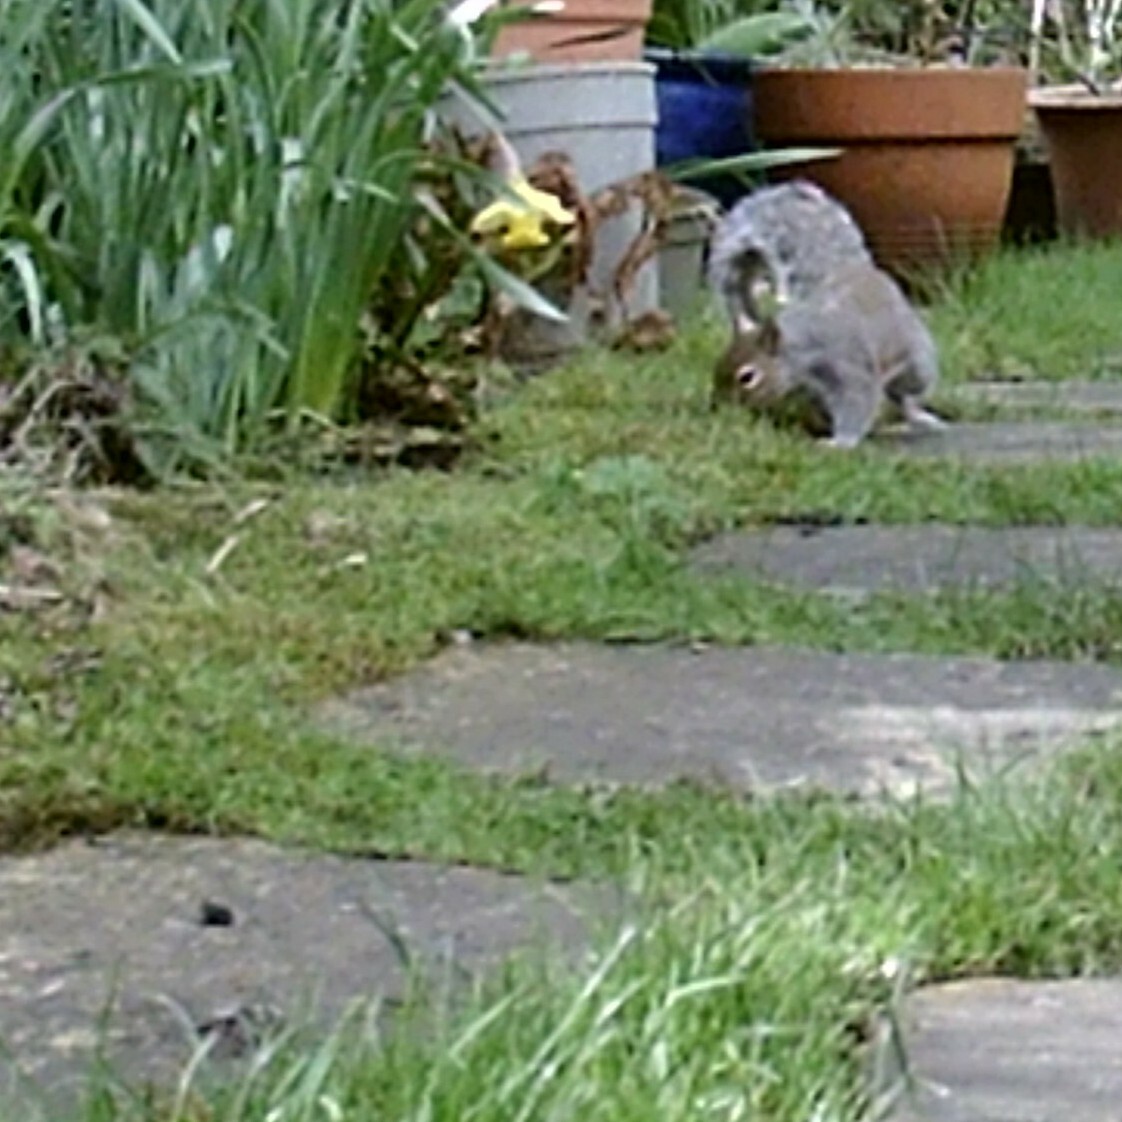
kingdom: Animalia
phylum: Chordata
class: Mammalia
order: Rodentia
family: Sciuridae
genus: Sciurus
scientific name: Sciurus carolinensis
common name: Eastern gray squirrel
